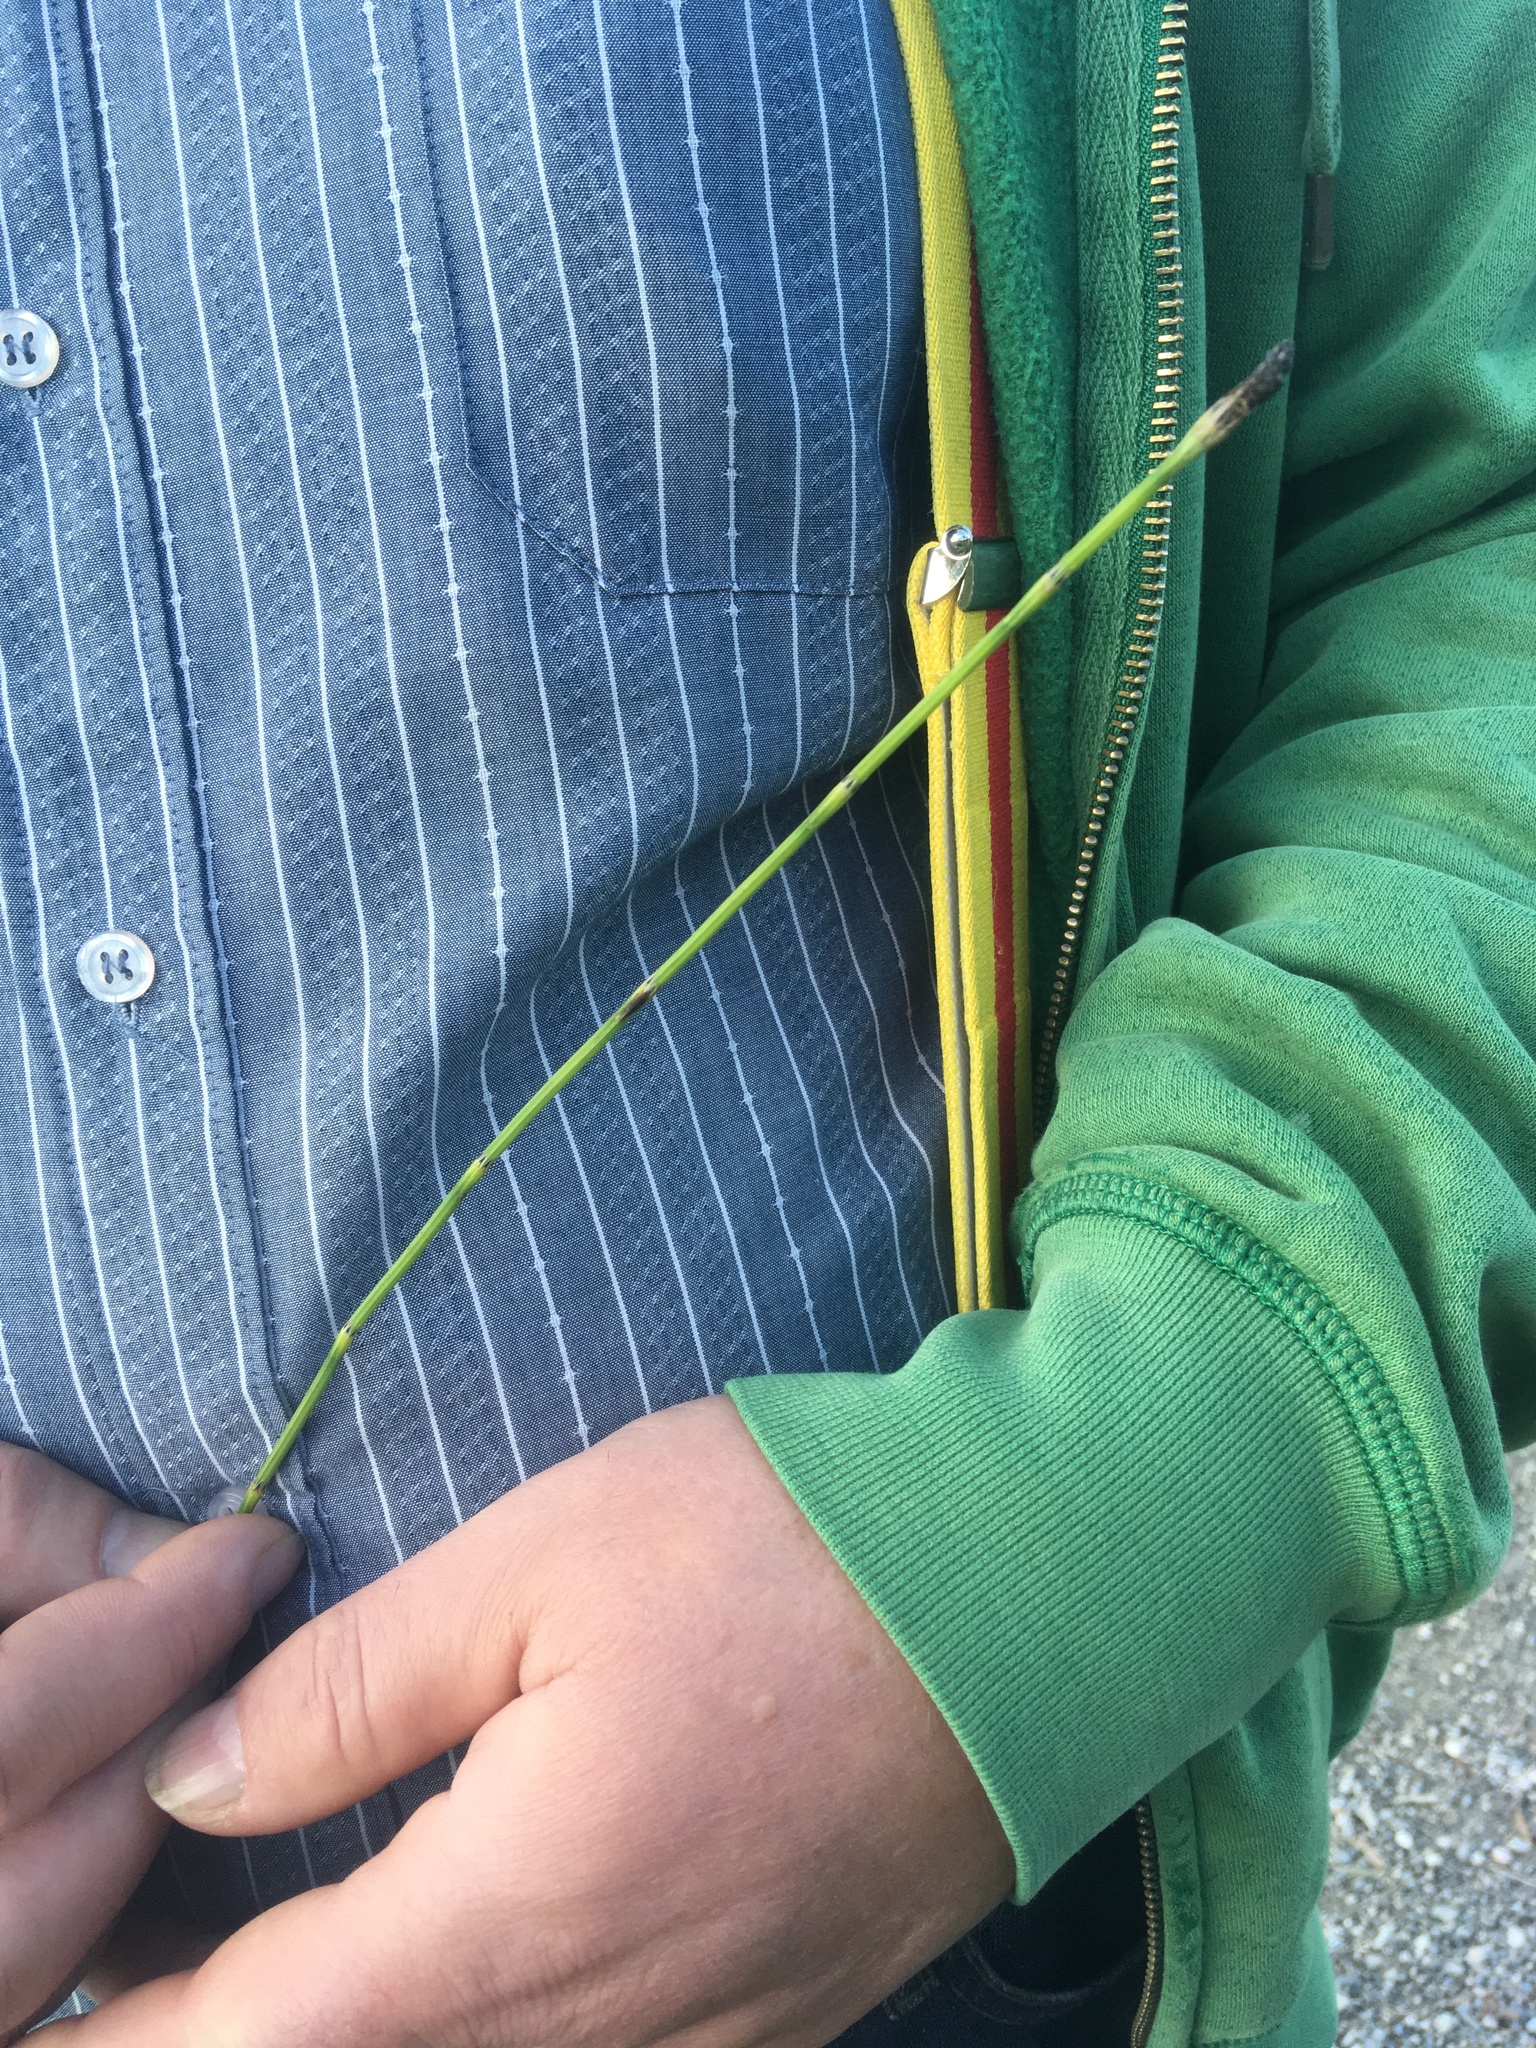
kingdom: Plantae
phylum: Tracheophyta
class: Polypodiopsida
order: Equisetales
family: Equisetaceae
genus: Equisetum
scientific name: Equisetum palustre
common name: Marsh horsetail
